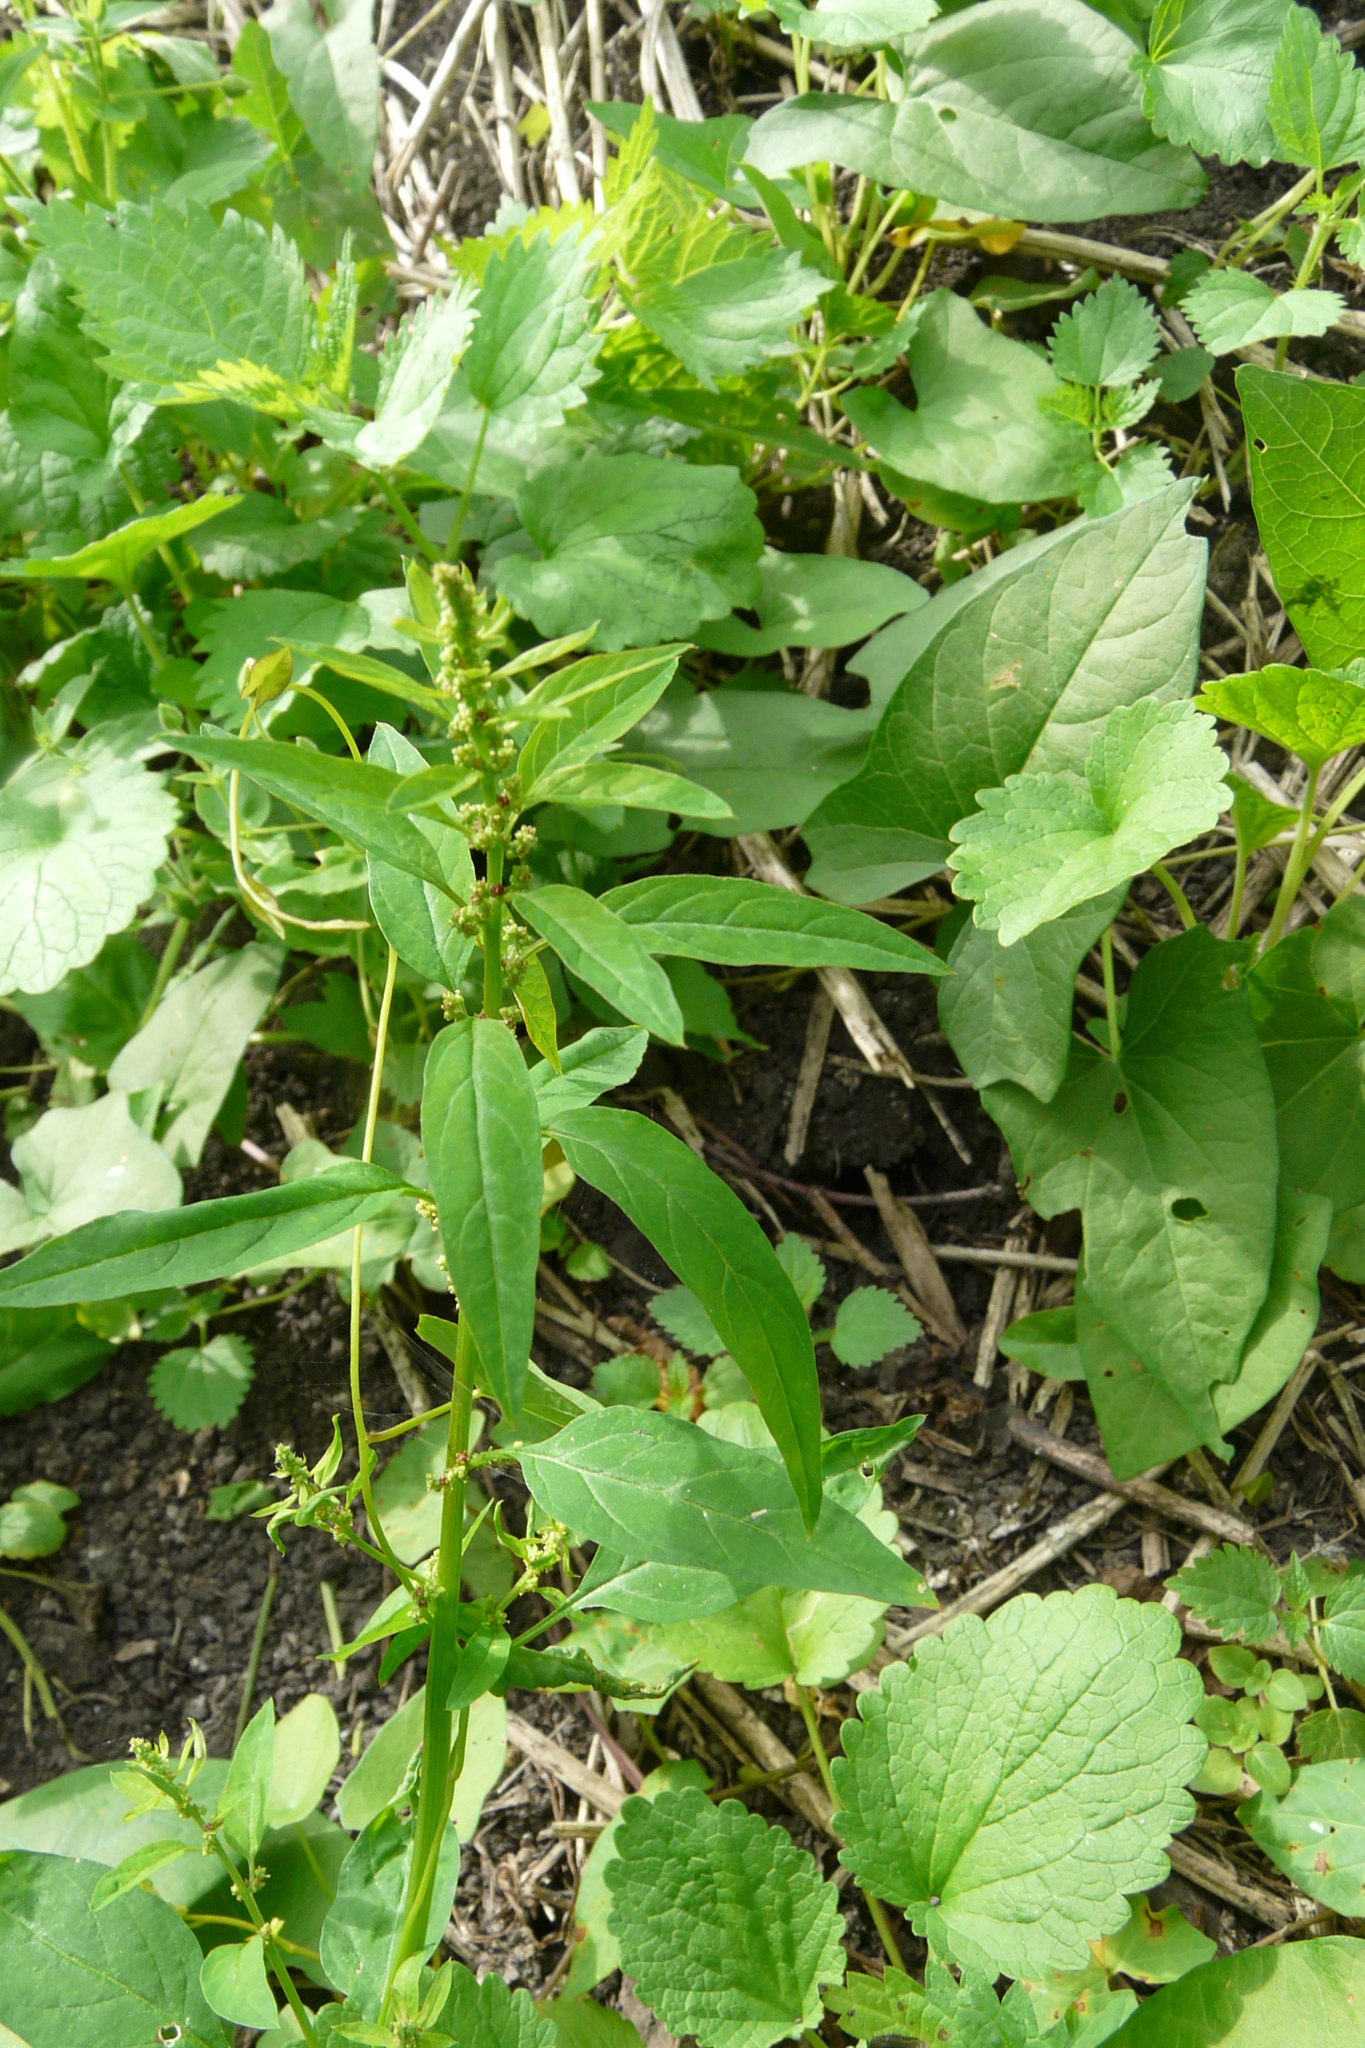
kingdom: Plantae
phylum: Tracheophyta
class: Magnoliopsida
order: Caryophyllales
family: Amaranthaceae
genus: Lipandra
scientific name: Lipandra polysperma
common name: Many-seed goosefoot
